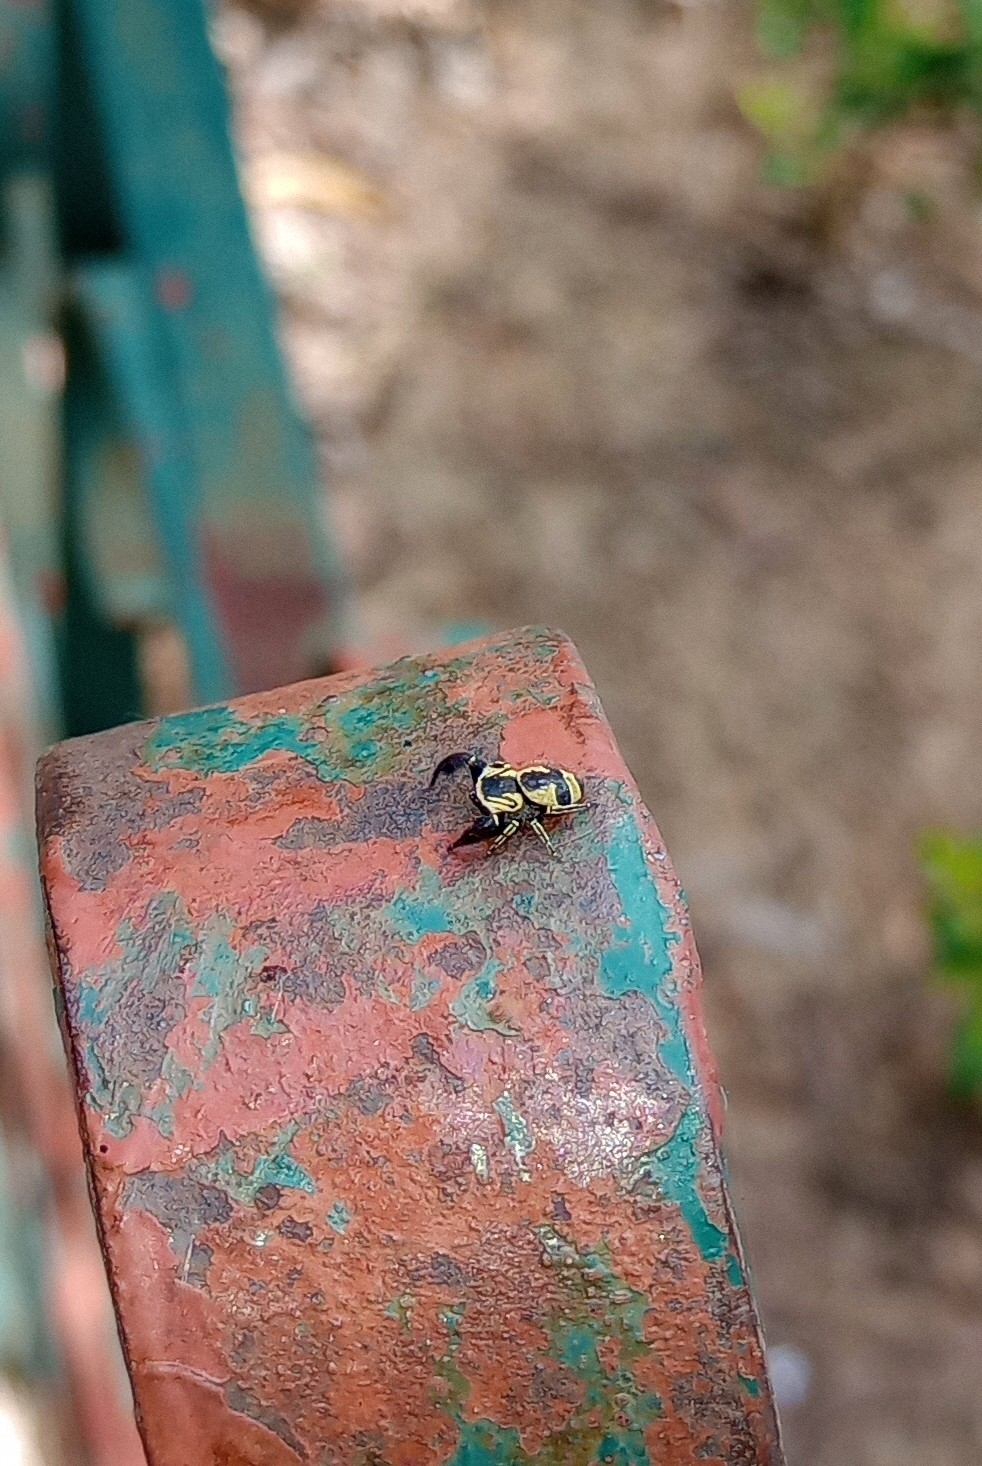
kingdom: Animalia
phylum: Arthropoda
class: Arachnida
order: Araneae
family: Salticidae
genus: Rhene
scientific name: Rhene flavicomans
